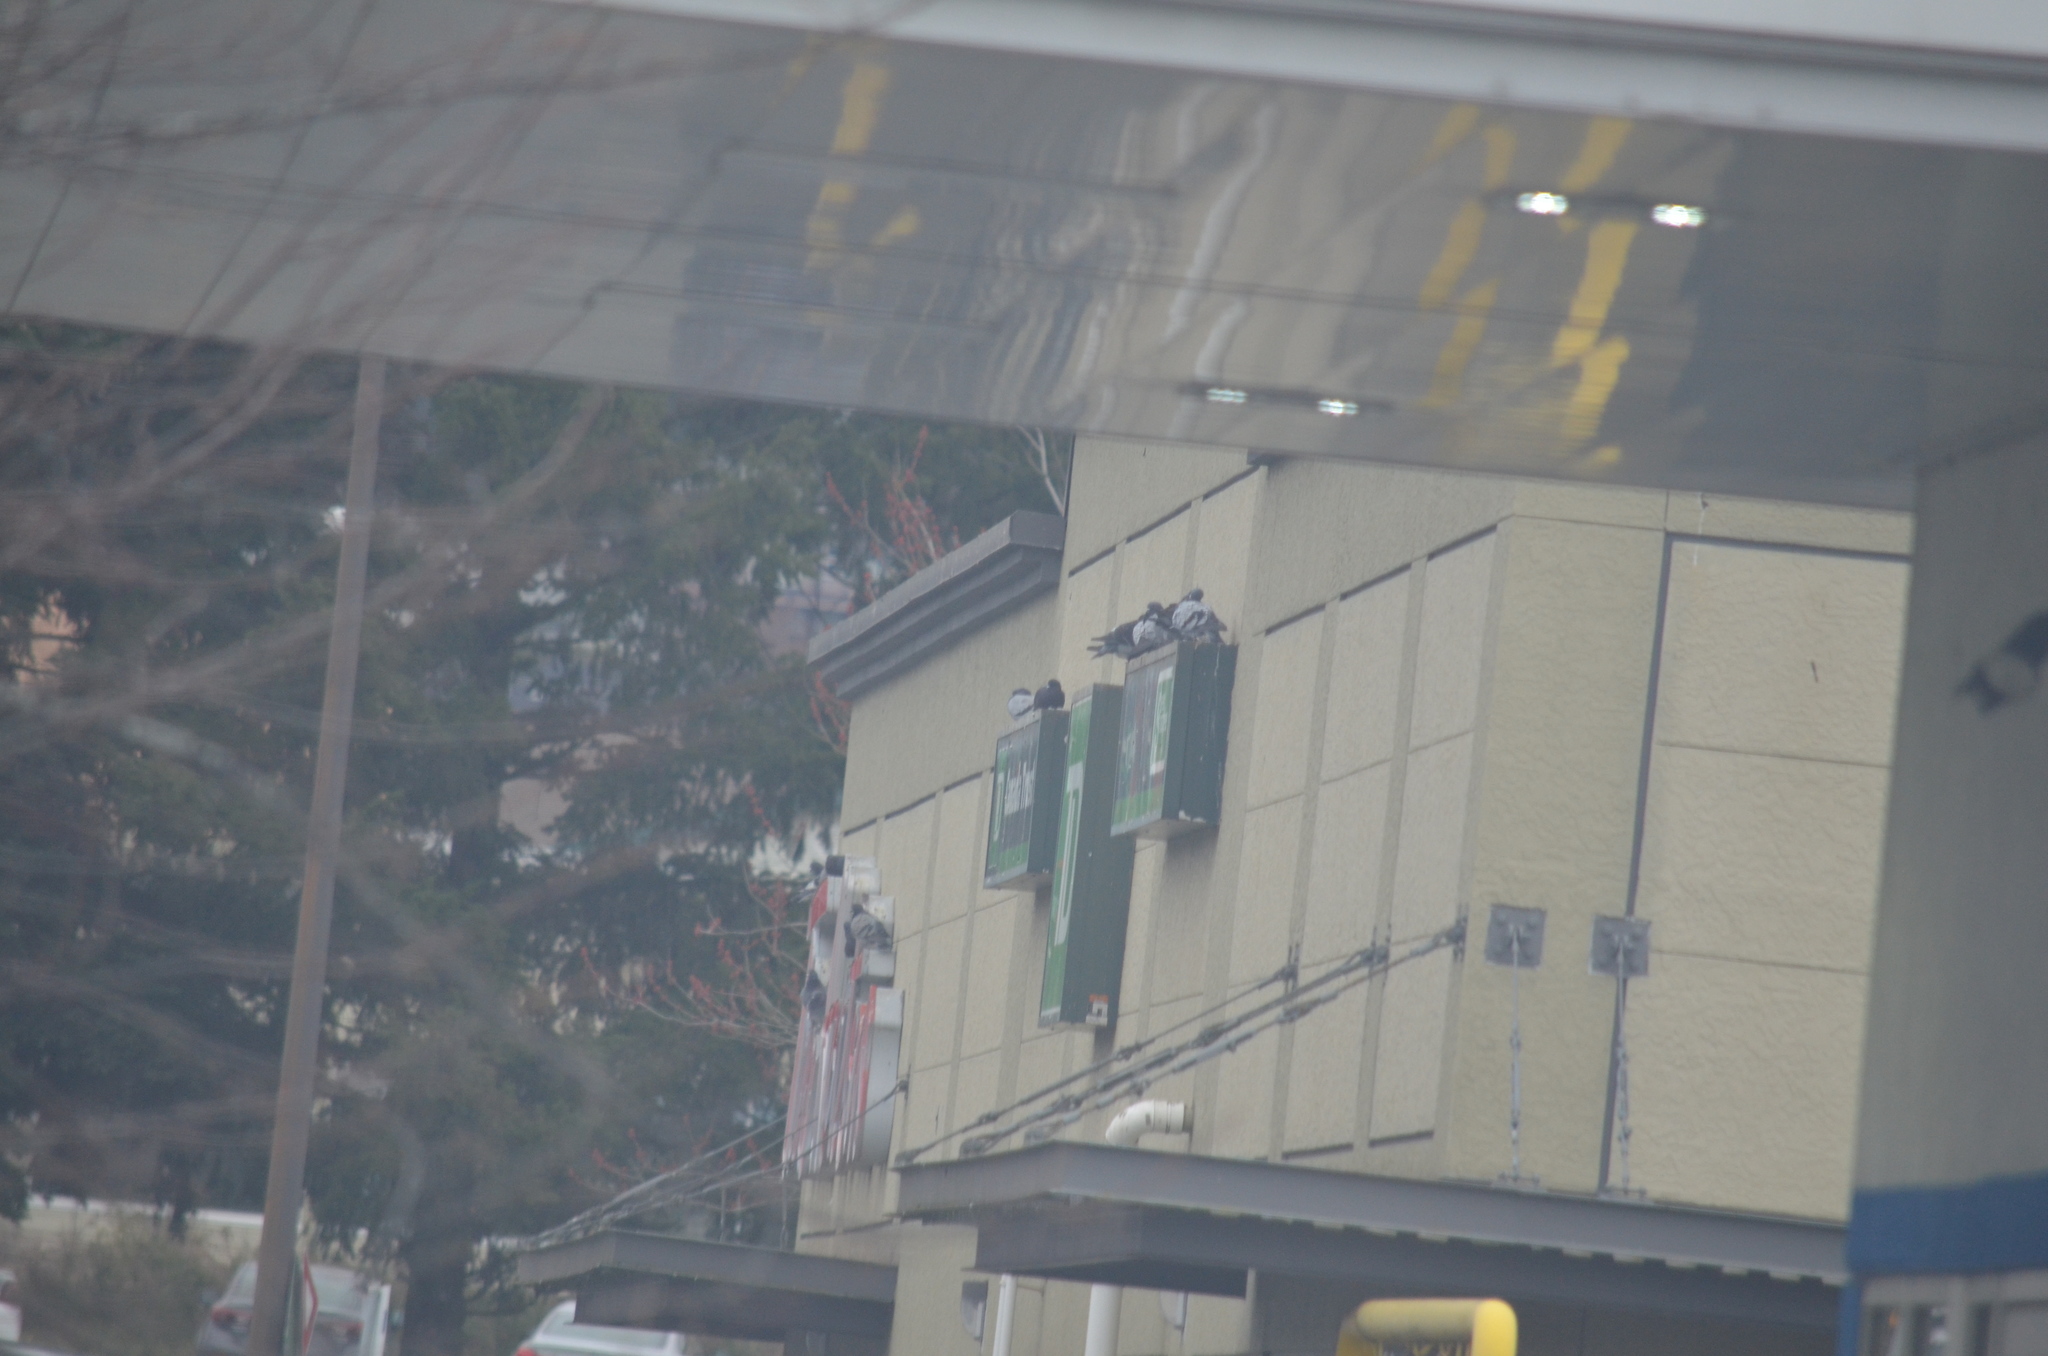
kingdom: Animalia
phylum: Chordata
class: Aves
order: Columbiformes
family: Columbidae
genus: Columba
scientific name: Columba livia
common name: Rock pigeon
